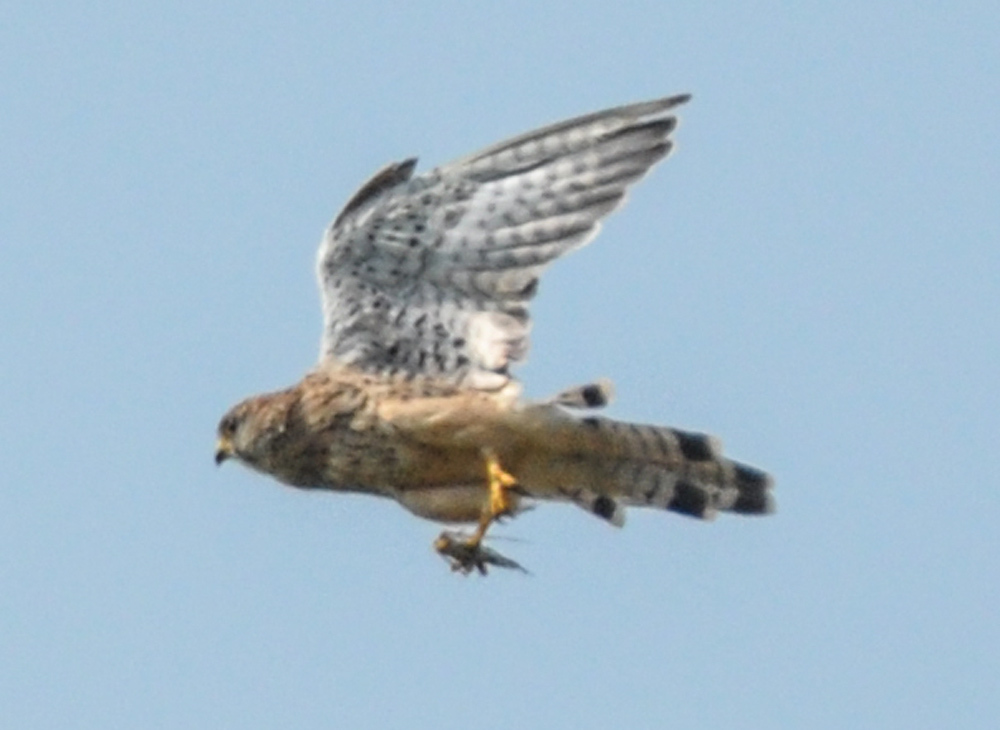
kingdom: Animalia
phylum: Chordata
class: Aves
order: Falconiformes
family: Falconidae
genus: Falco
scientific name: Falco tinnunculus
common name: Common kestrel
